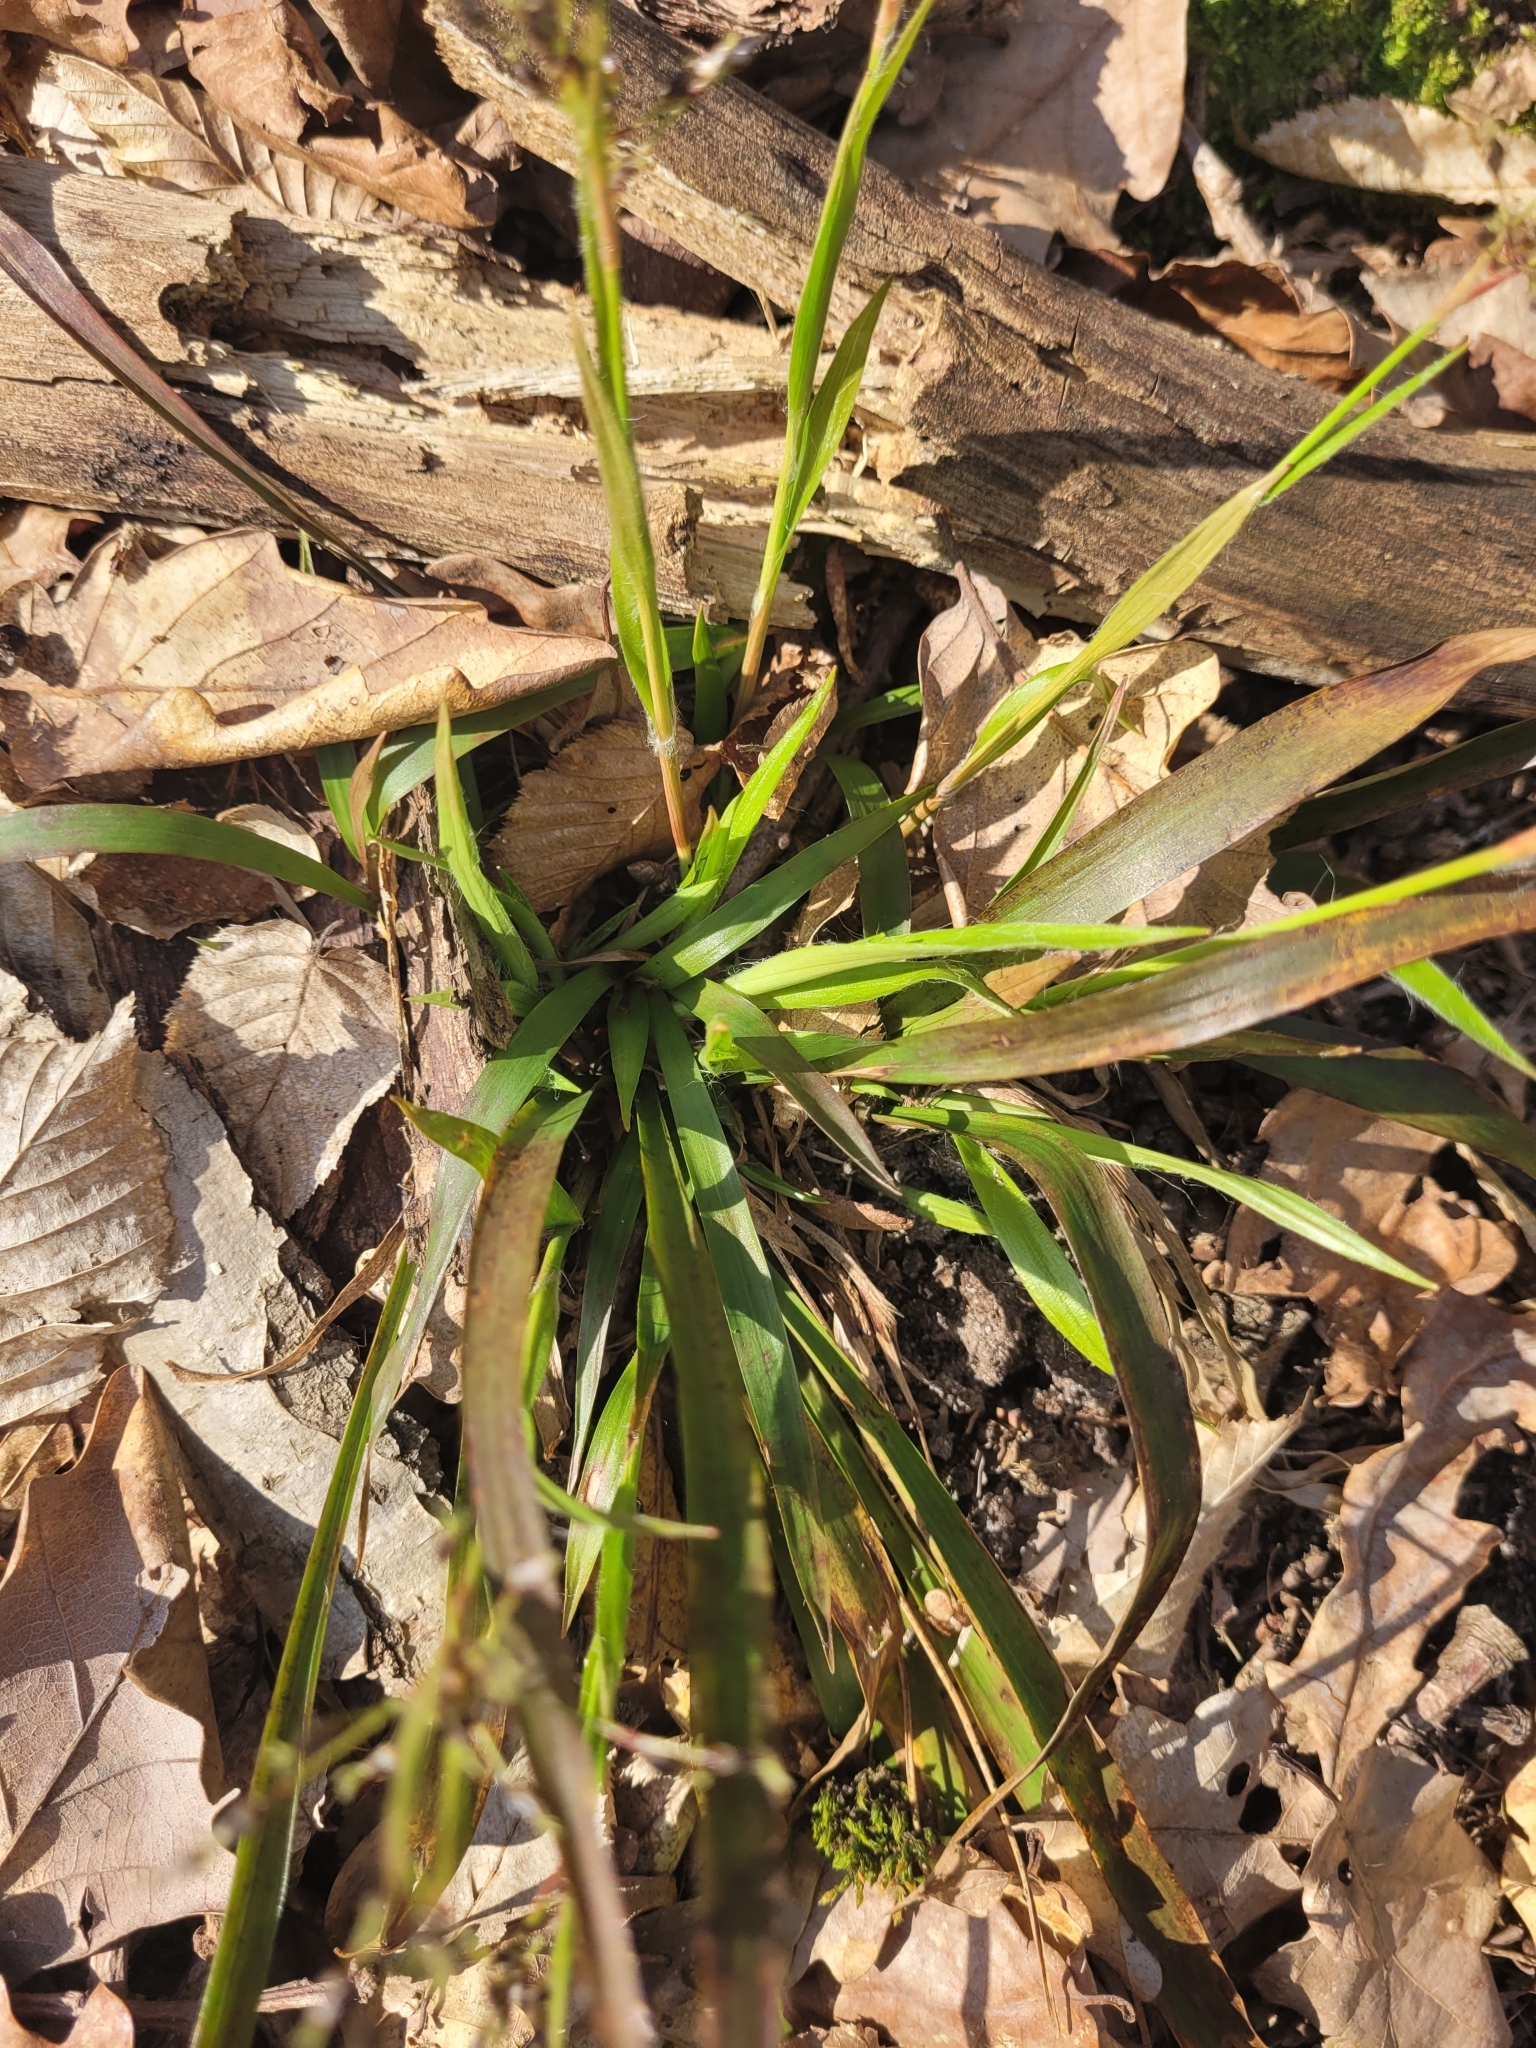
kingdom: Plantae
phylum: Tracheophyta
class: Liliopsida
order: Poales
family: Juncaceae
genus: Luzula
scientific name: Luzula pilosa
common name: Hairy wood-rush
